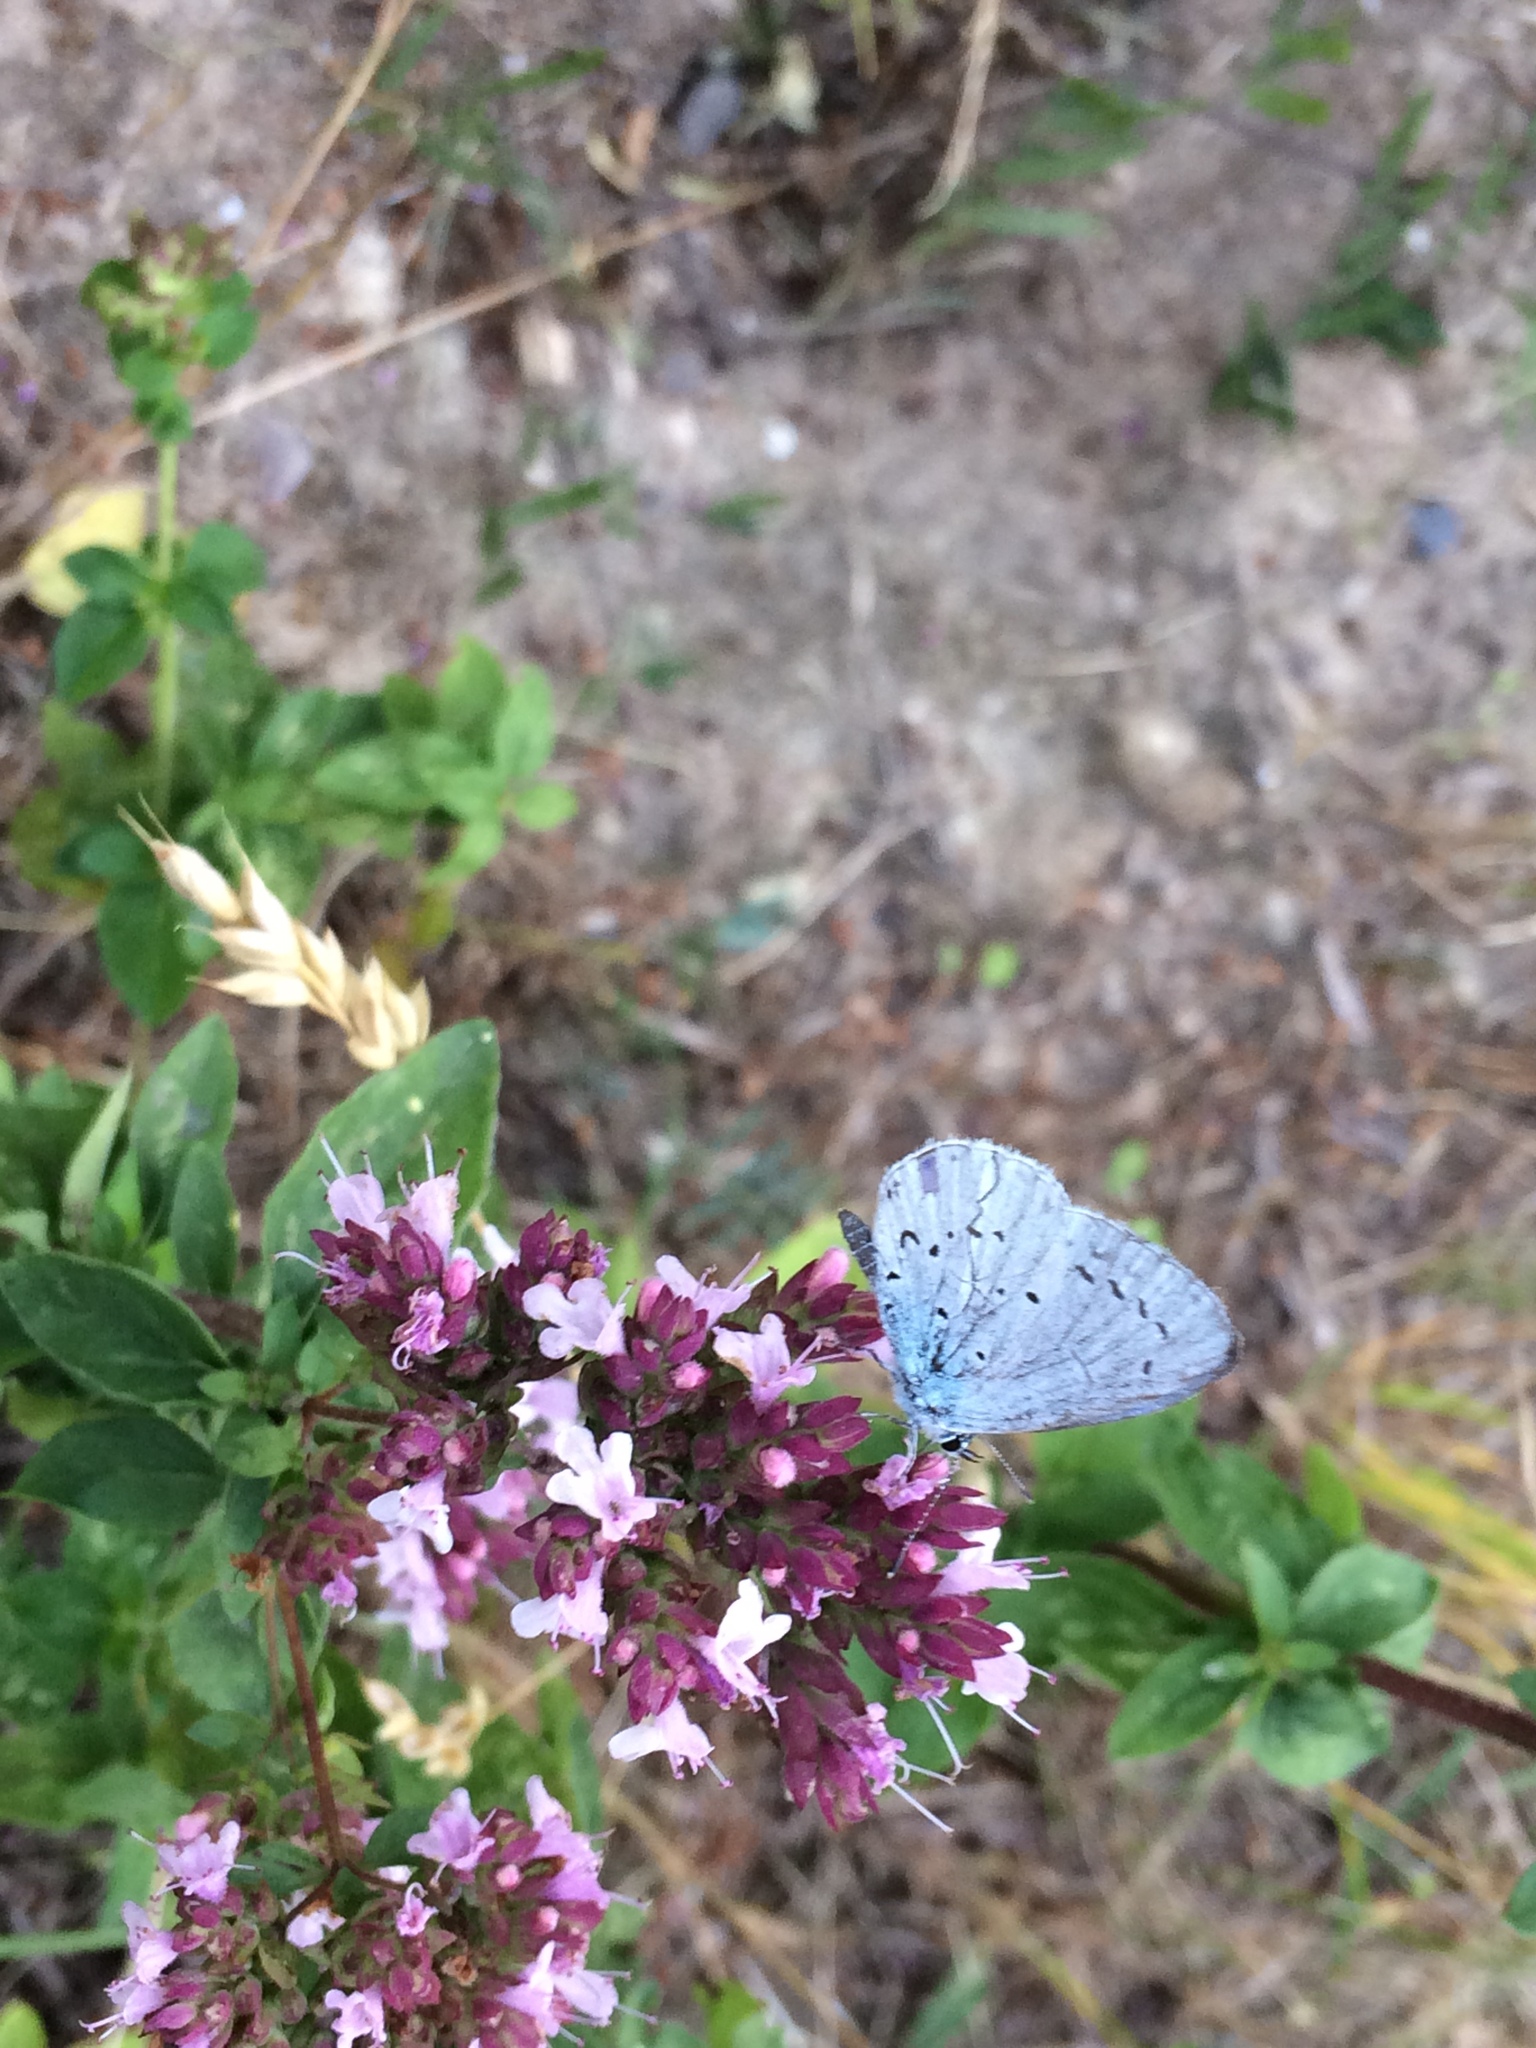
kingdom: Animalia
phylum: Arthropoda
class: Insecta
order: Lepidoptera
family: Lycaenidae
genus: Celastrina
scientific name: Celastrina argiolus
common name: Holly blue
